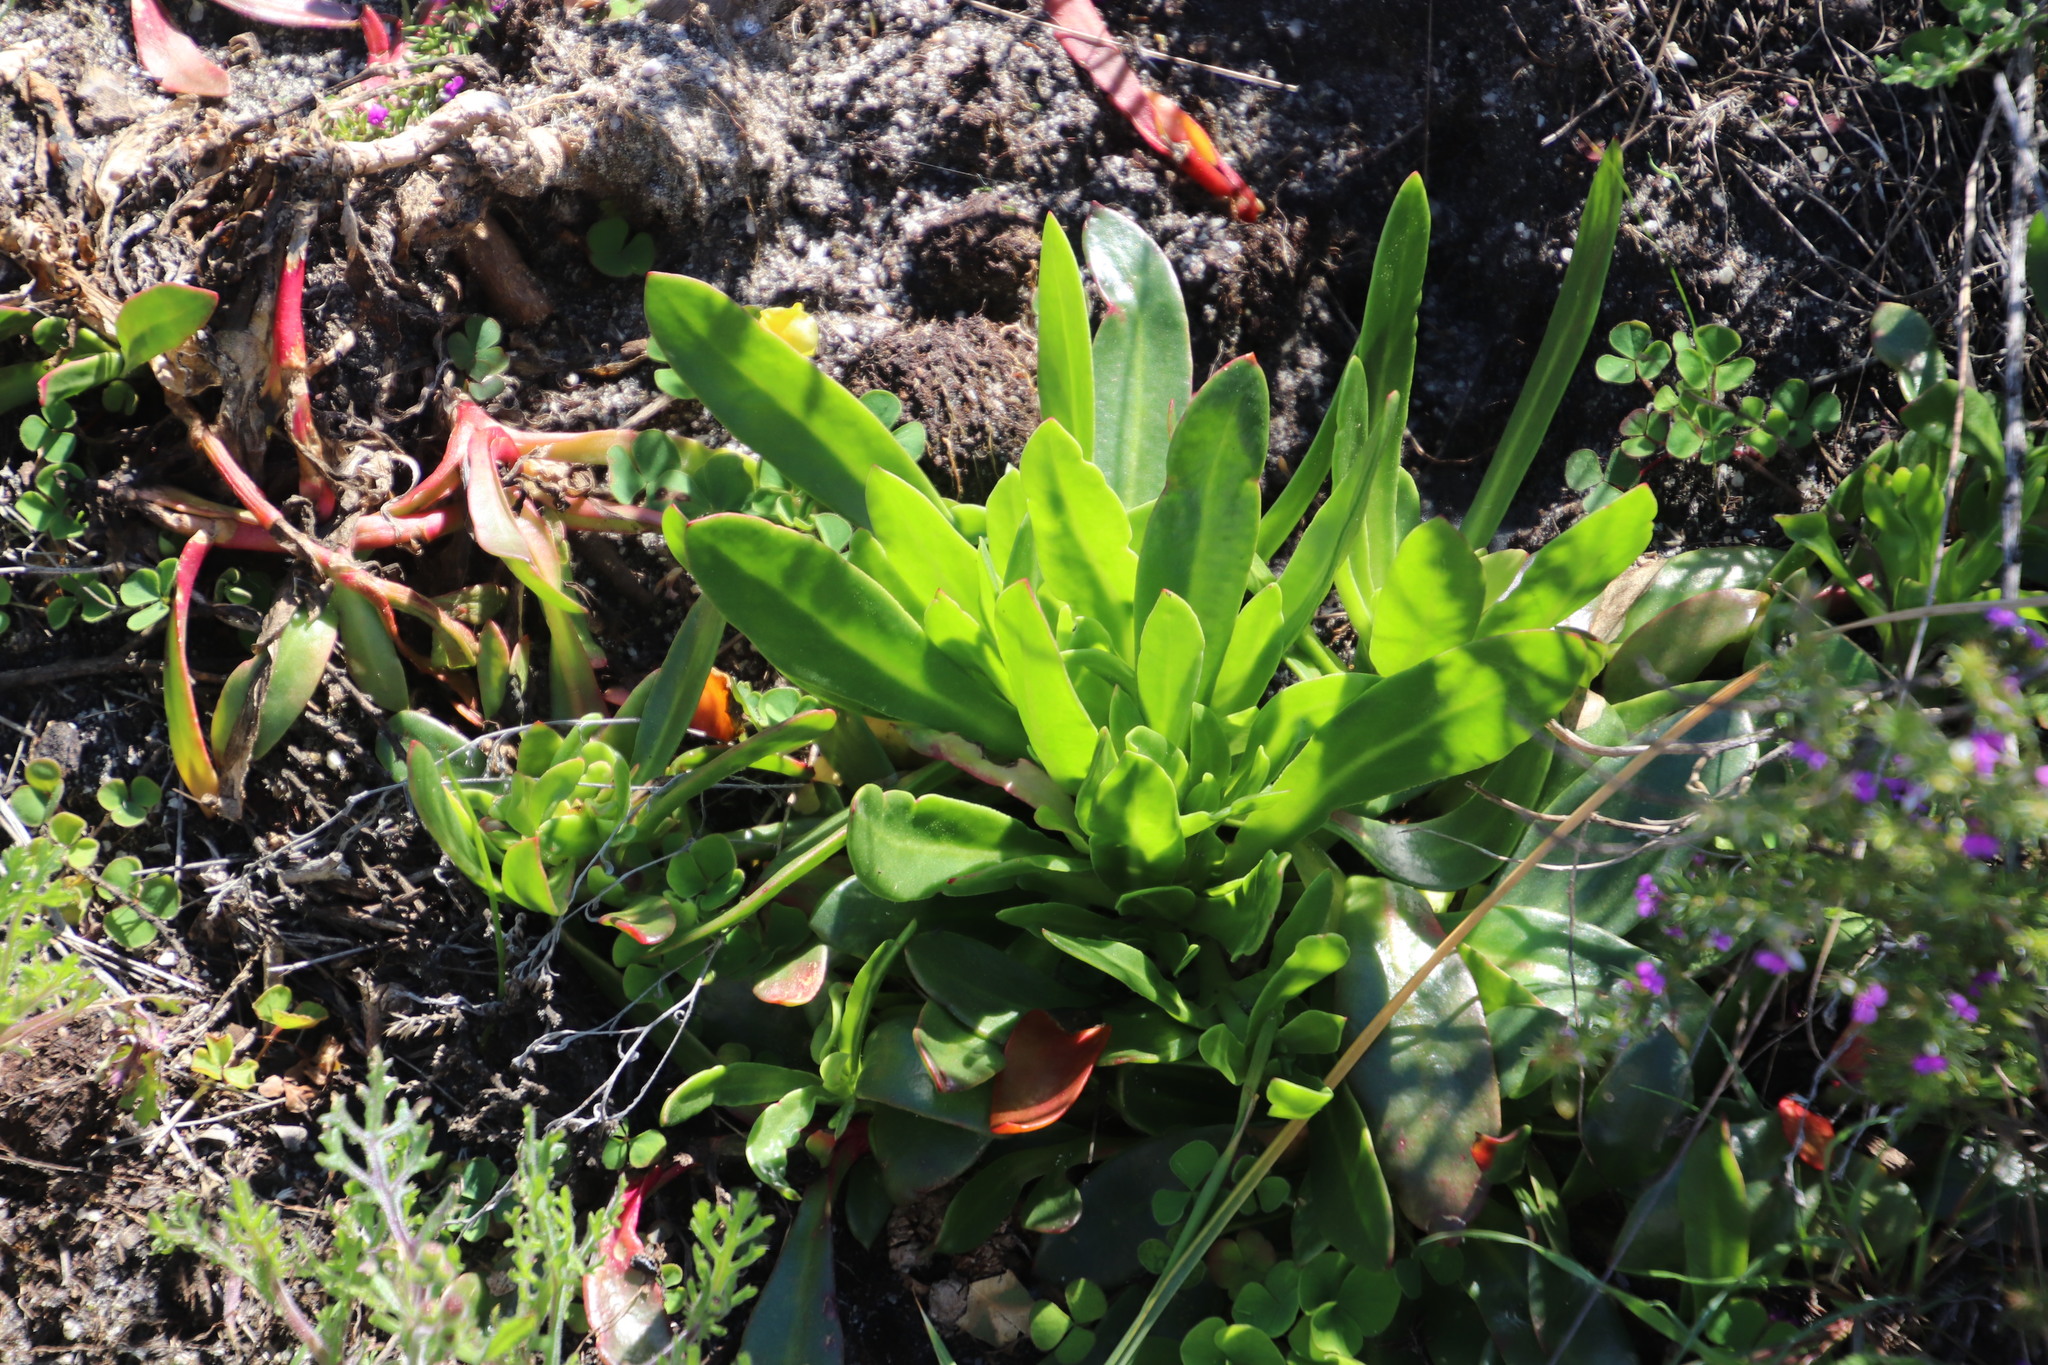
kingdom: Plantae
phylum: Tracheophyta
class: Magnoliopsida
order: Caryophyllales
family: Aizoaceae
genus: Skiatophytum
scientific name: Skiatophytum tripolium
